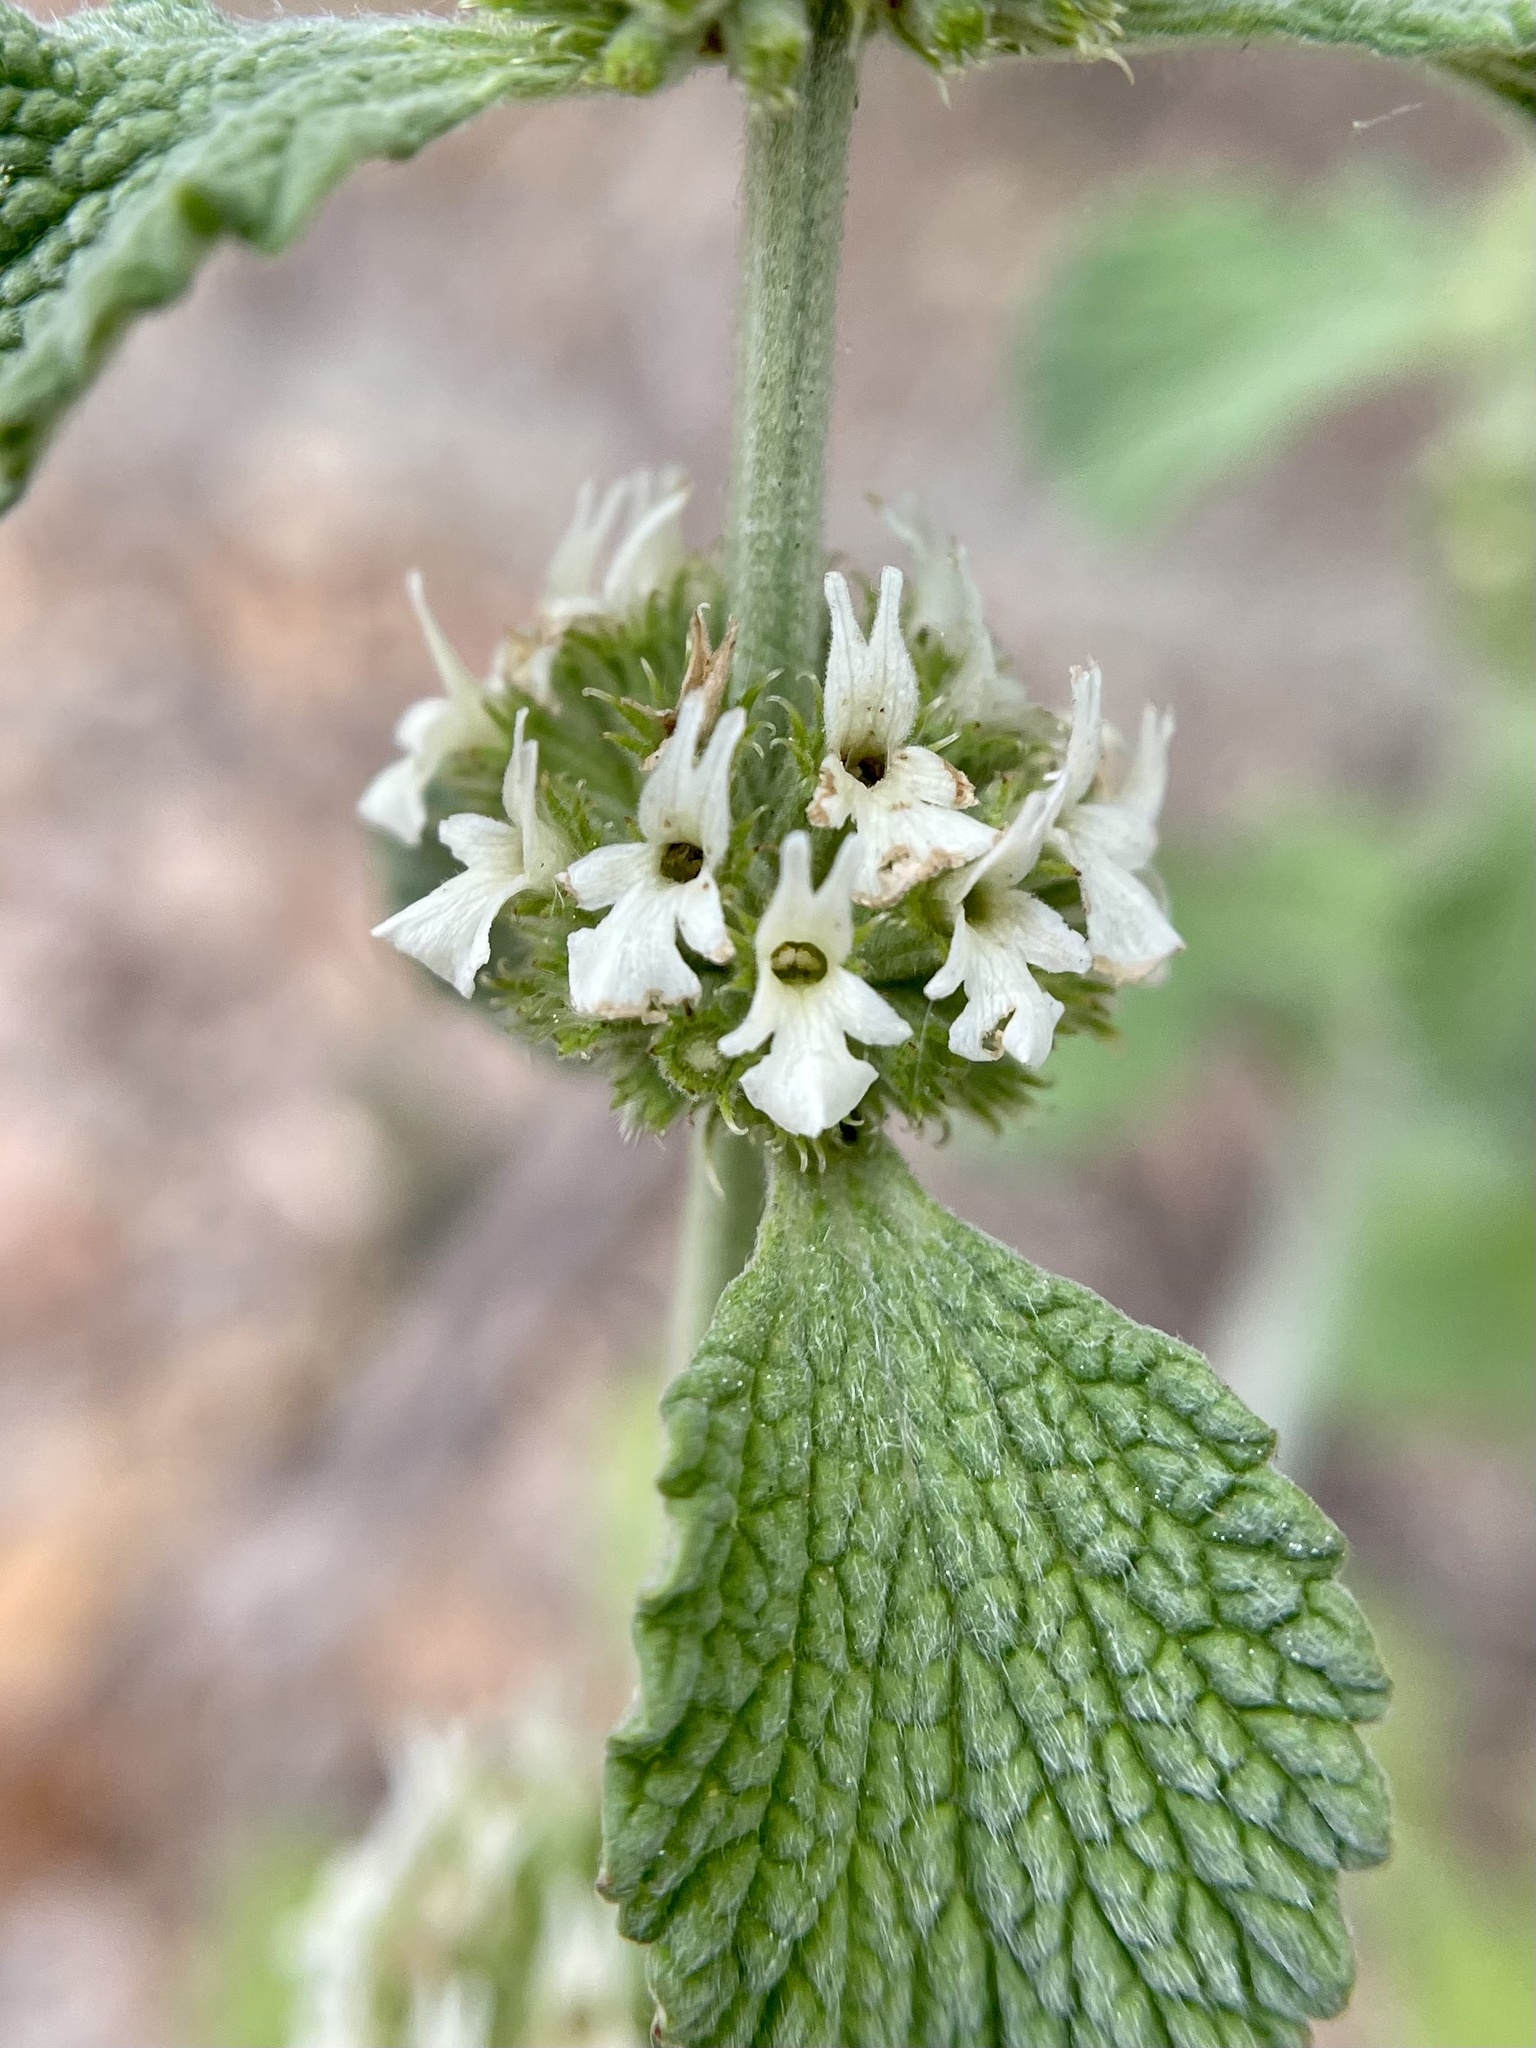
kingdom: Plantae
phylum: Tracheophyta
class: Magnoliopsida
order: Lamiales
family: Lamiaceae
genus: Marrubium
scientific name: Marrubium vulgare
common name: Horehound
